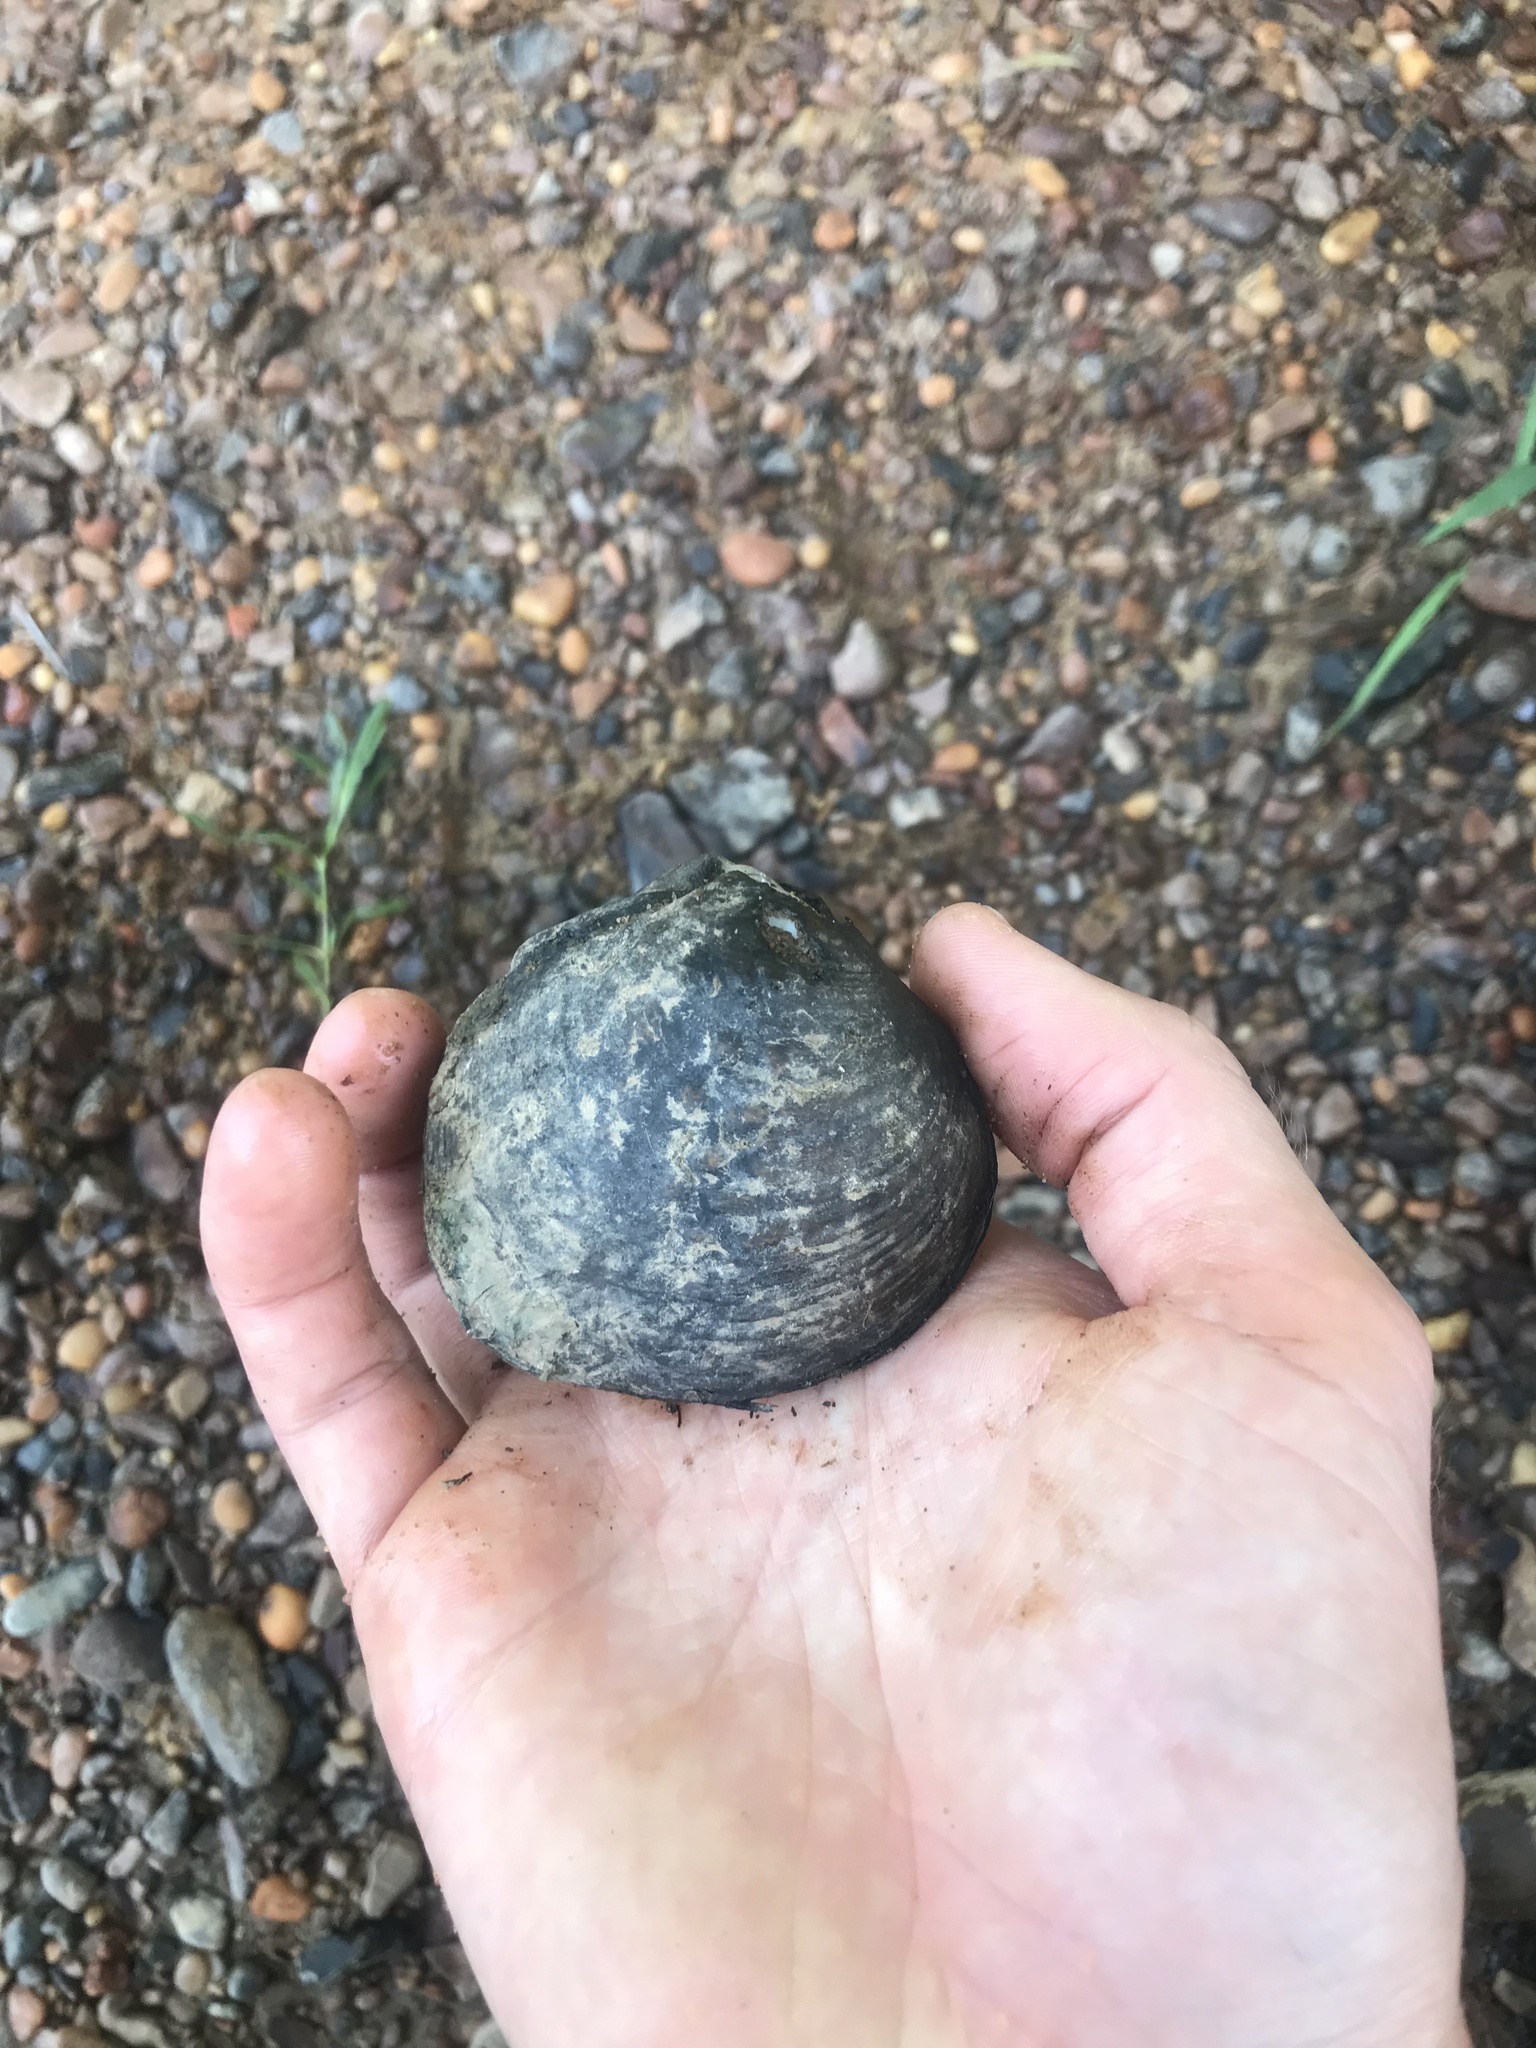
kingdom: Animalia
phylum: Mollusca
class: Bivalvia
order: Unionida
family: Unionidae
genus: Cyclonaias
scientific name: Cyclonaias kieneriana
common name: Coosa orb
